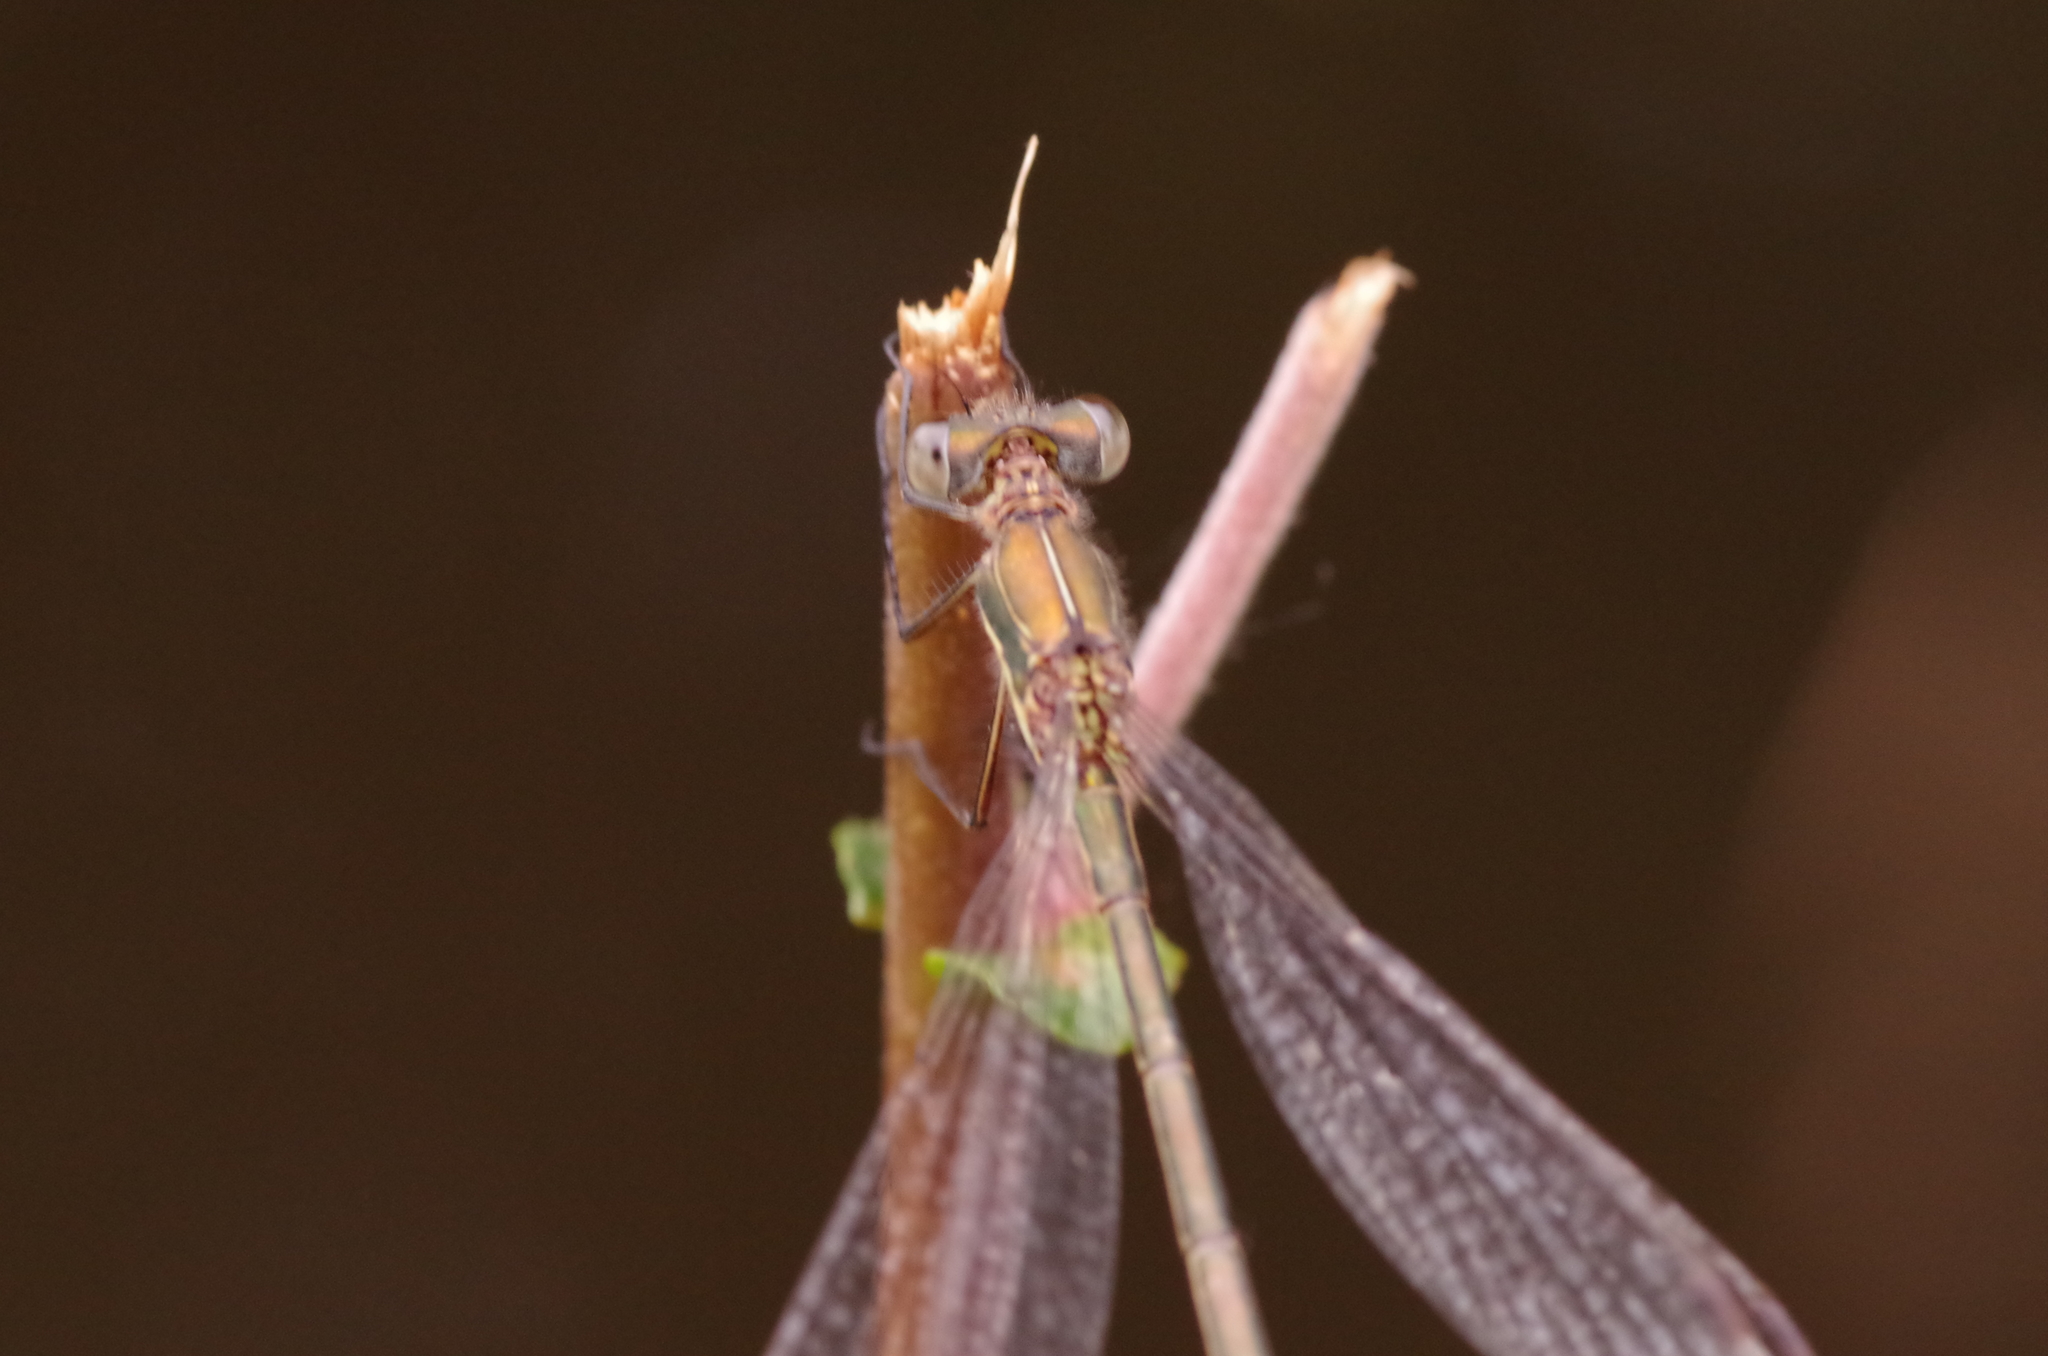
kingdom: Animalia
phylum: Arthropoda
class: Insecta
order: Odonata
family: Lestidae
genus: Lestes
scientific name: Lestes virens
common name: Small emerald spreadwing
